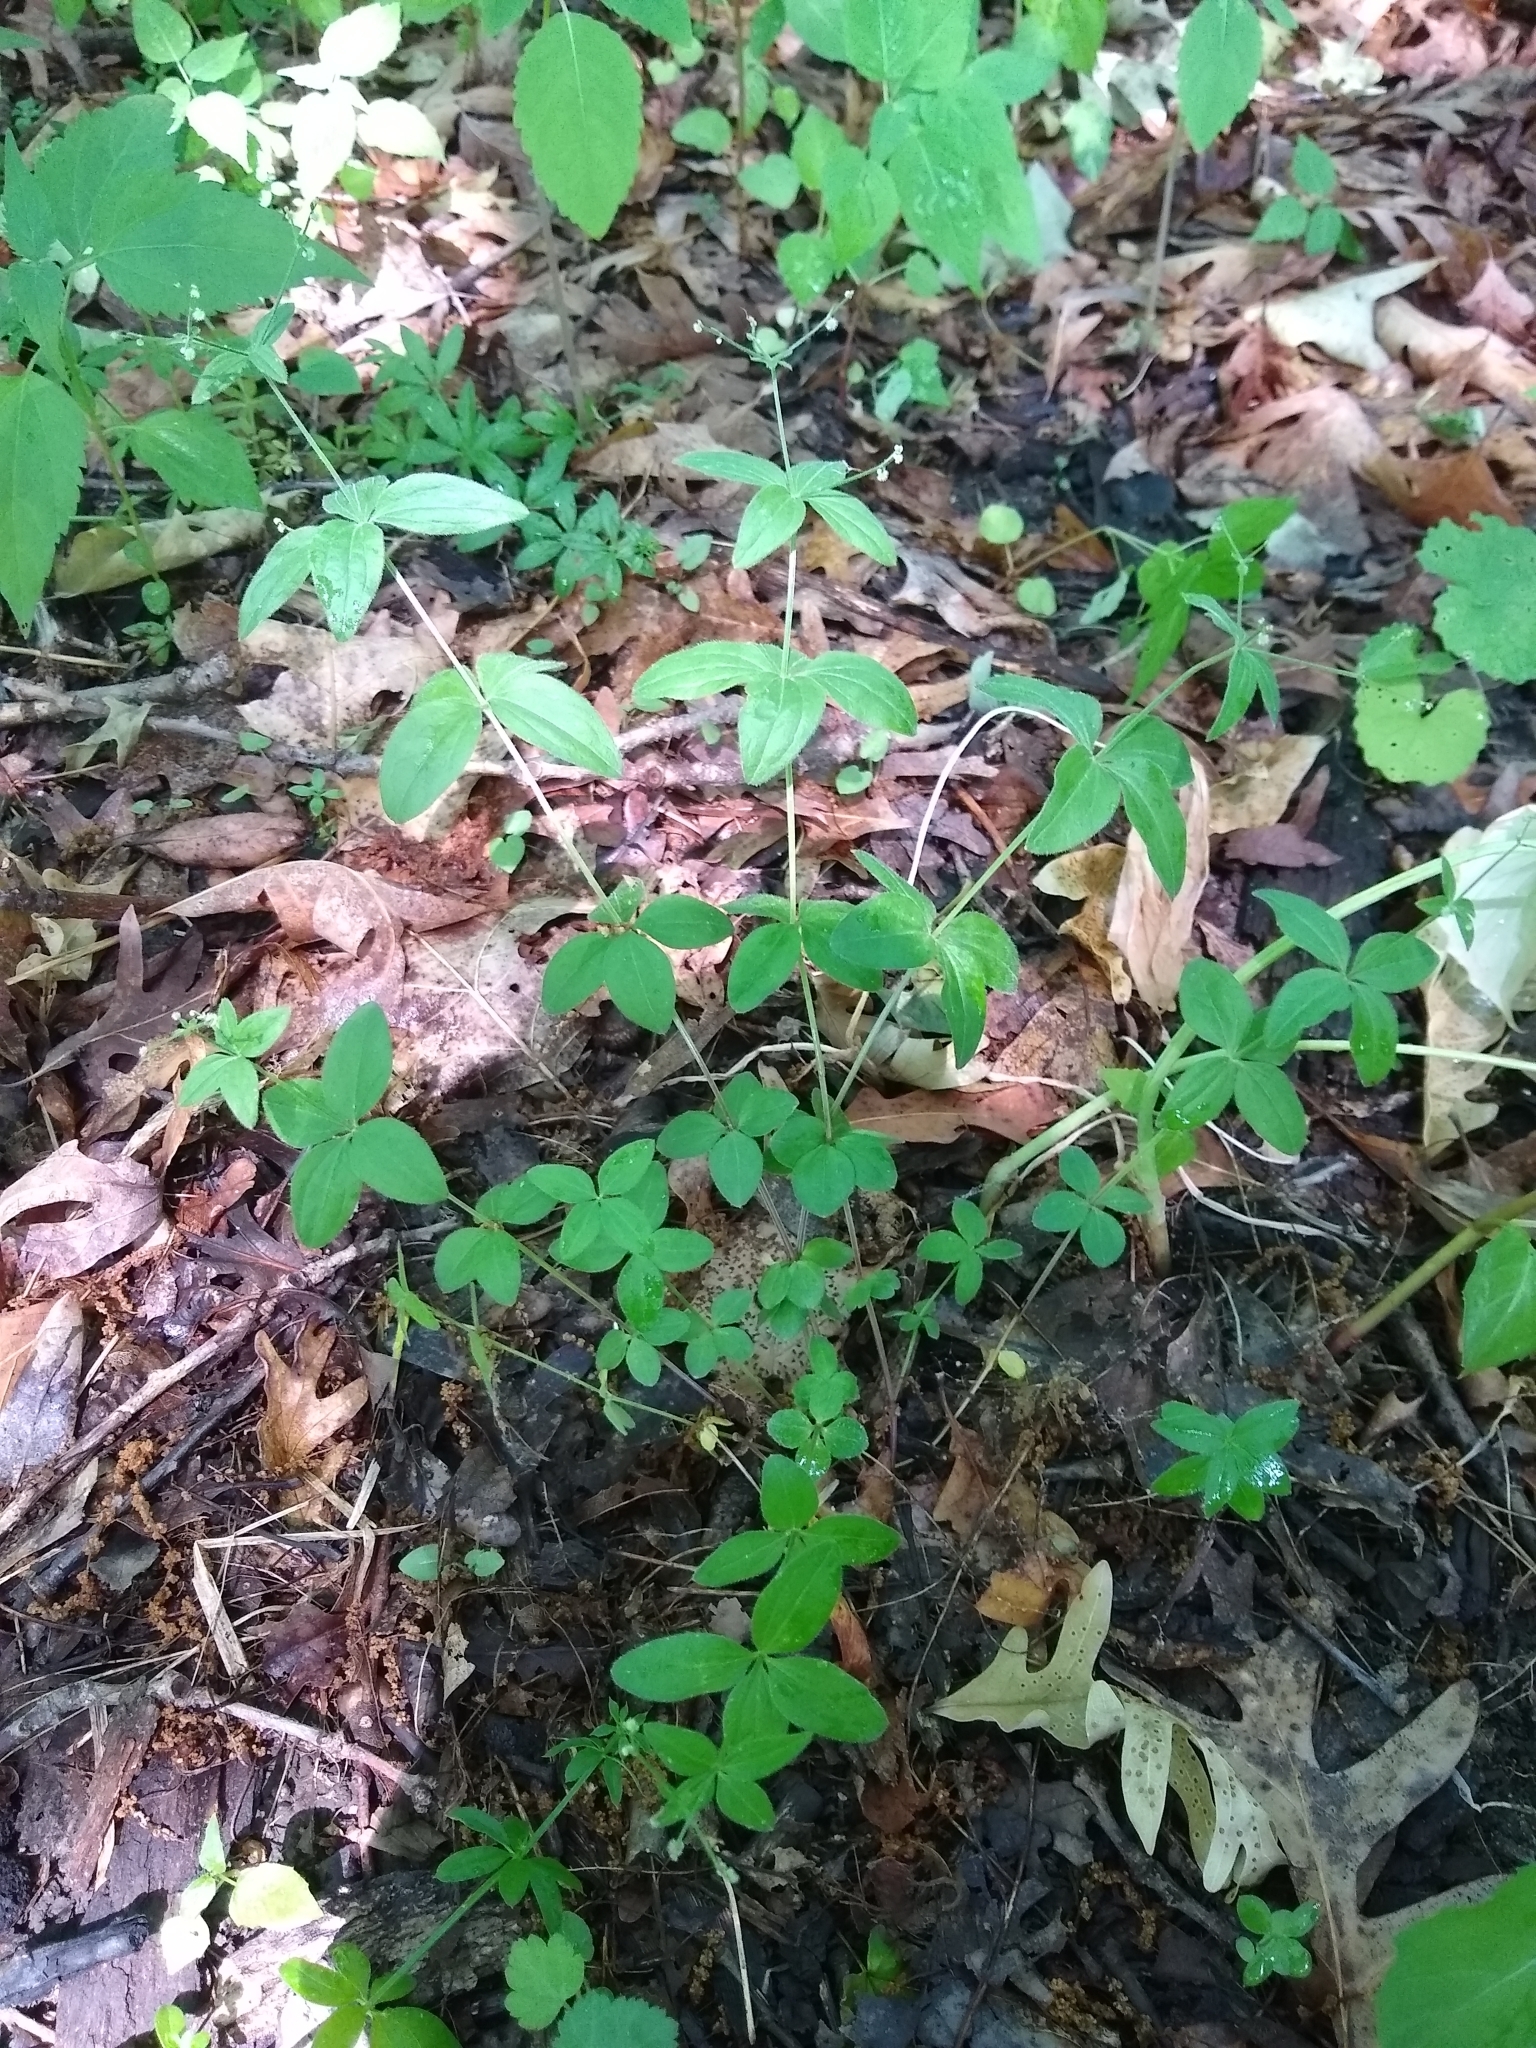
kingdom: Plantae
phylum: Tracheophyta
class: Magnoliopsida
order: Gentianales
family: Rubiaceae
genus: Galium
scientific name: Galium circaezans
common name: Forest bedstraw
